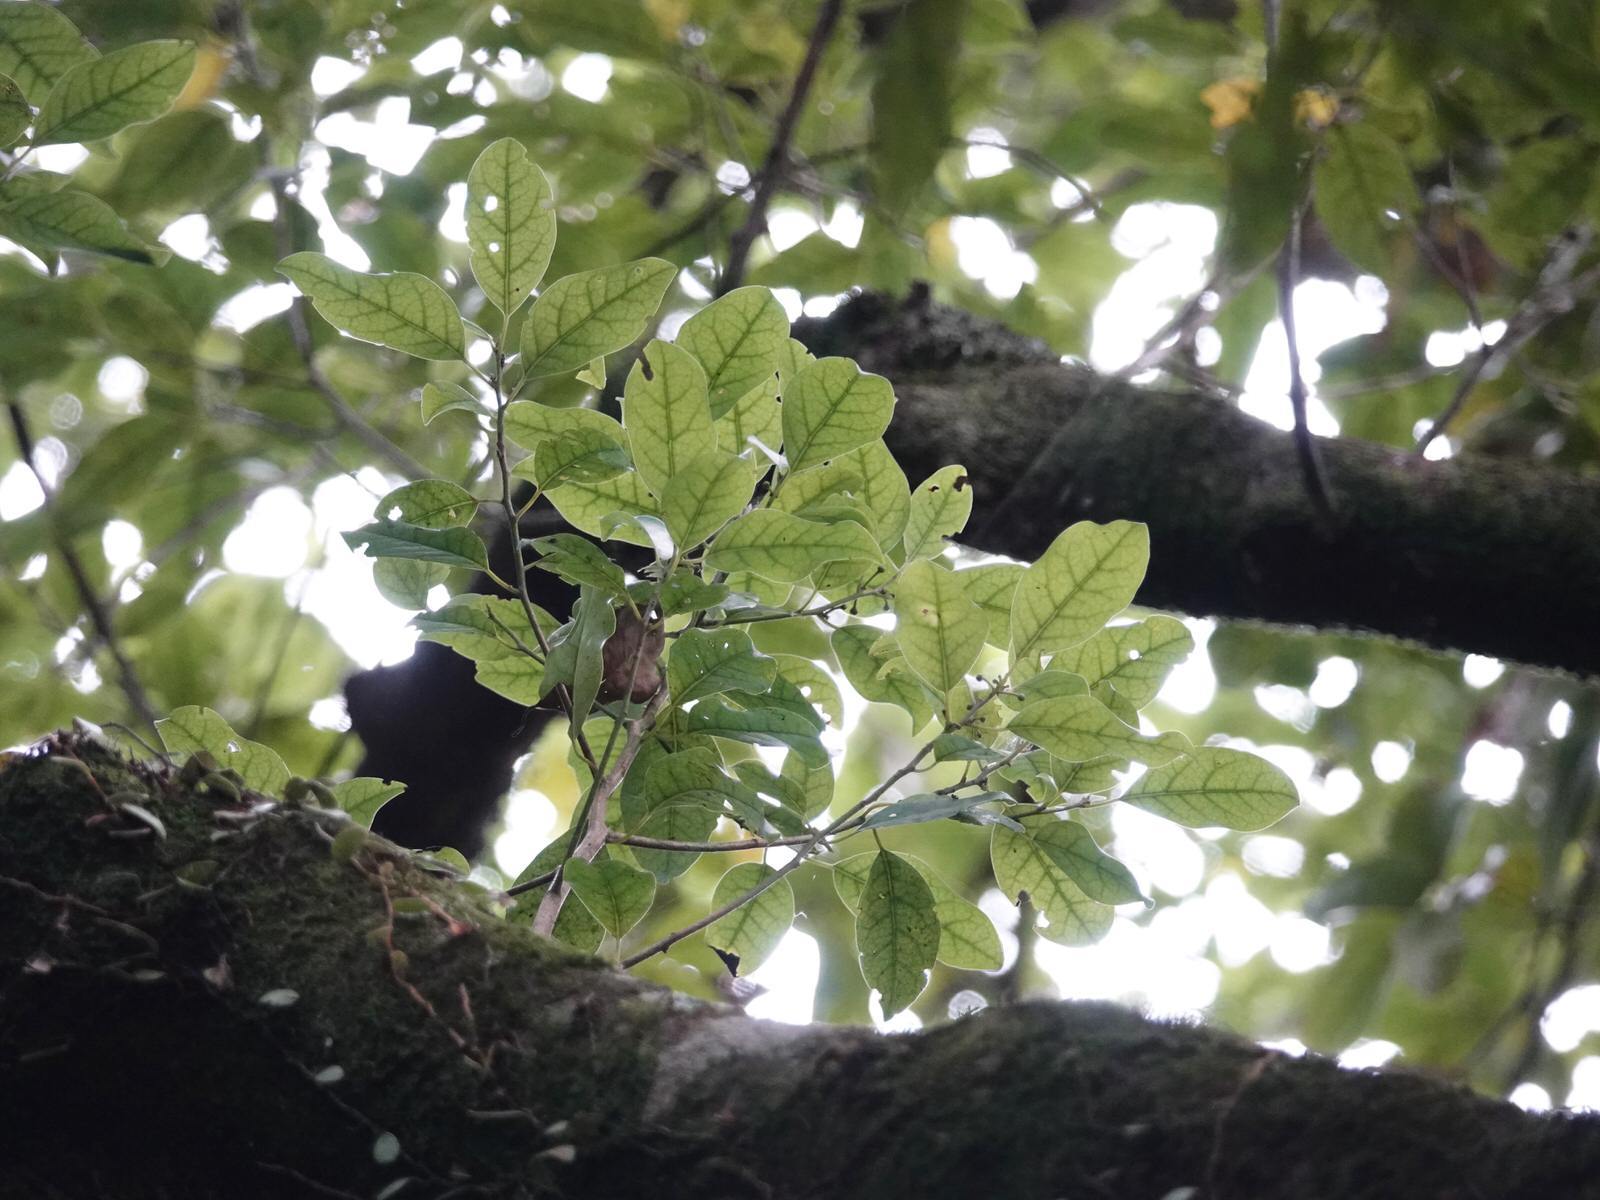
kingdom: Plantae
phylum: Tracheophyta
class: Magnoliopsida
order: Laurales
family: Lauraceae
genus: Litsea
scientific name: Litsea calicaris
